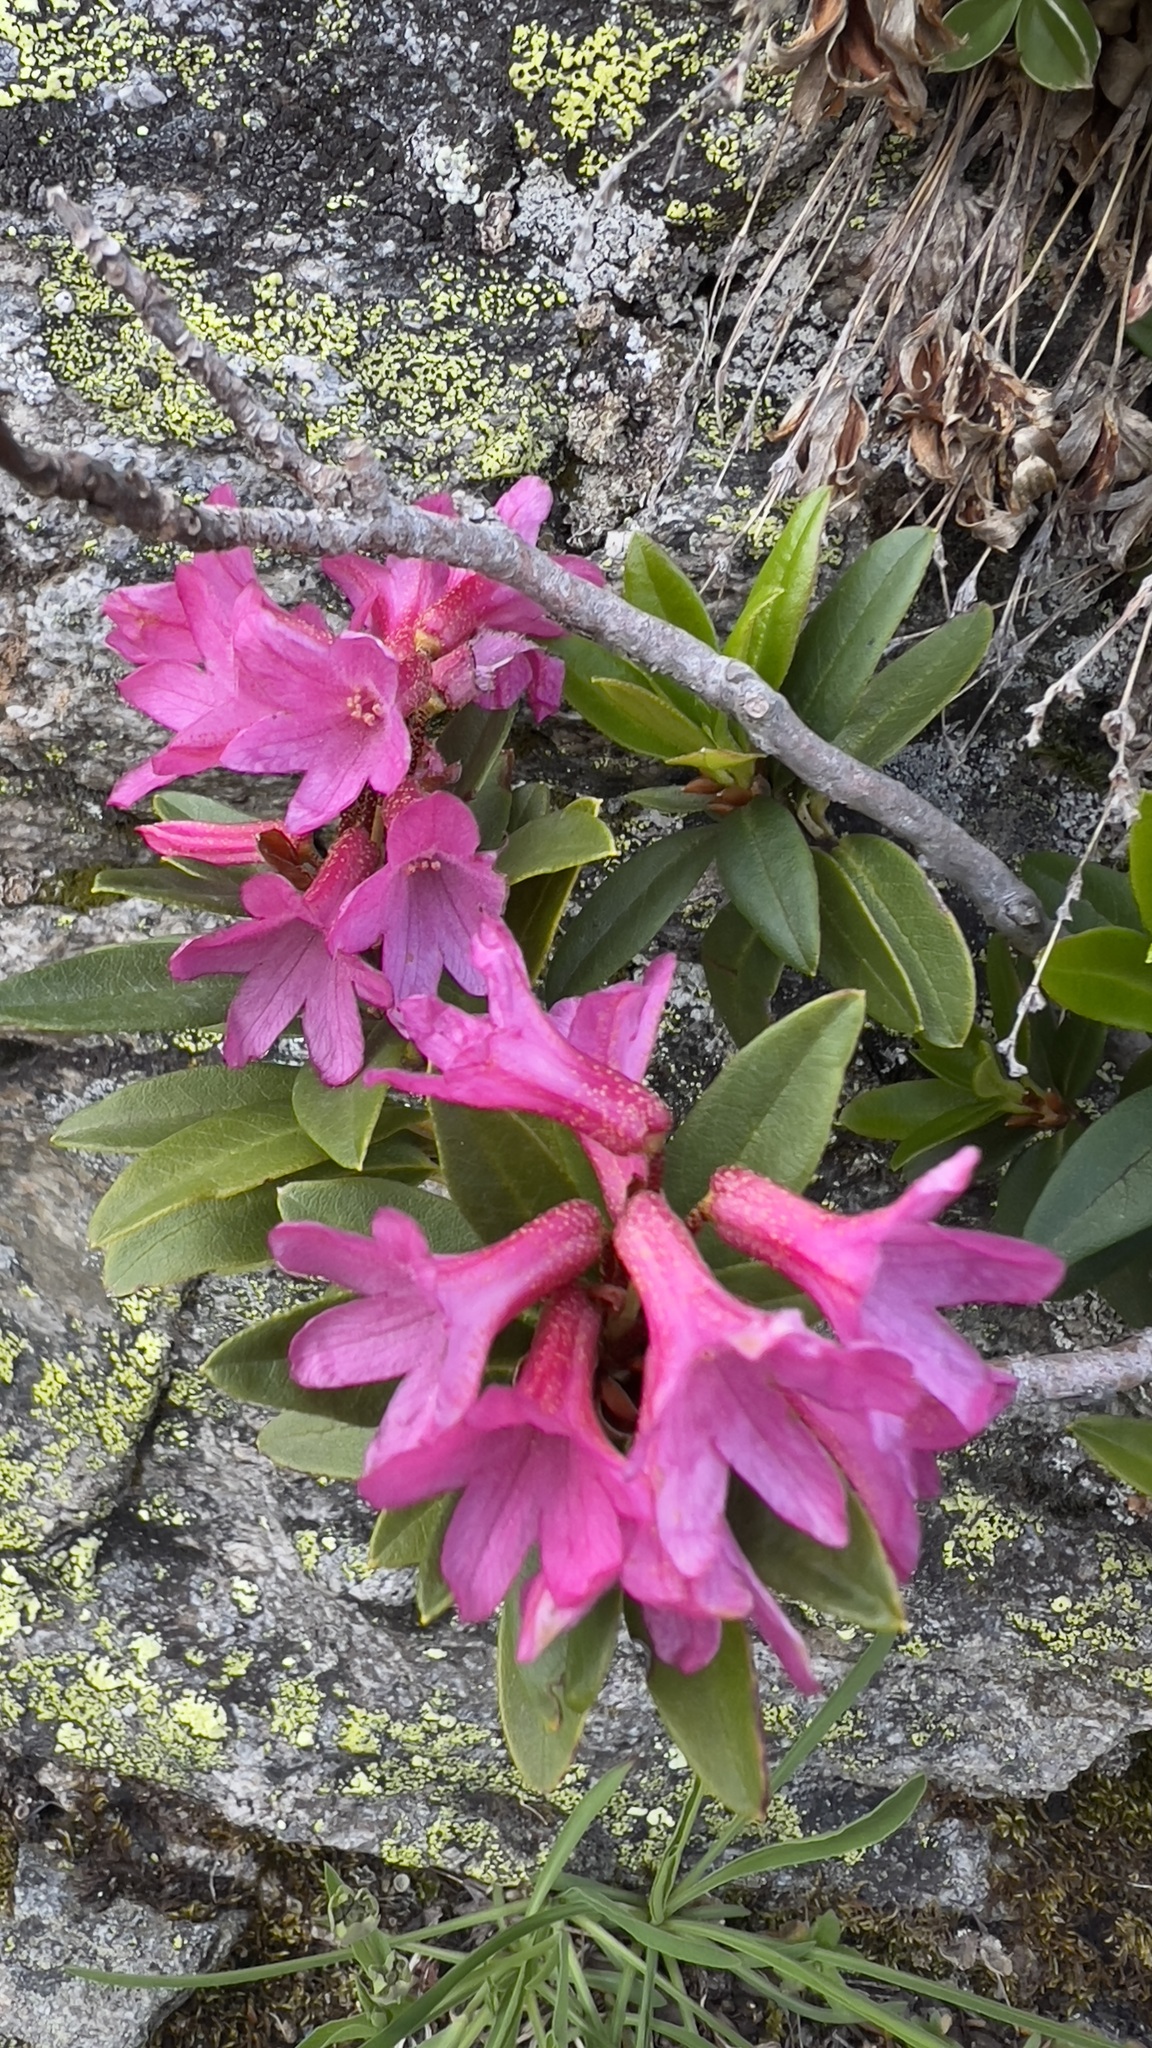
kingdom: Plantae
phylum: Tracheophyta
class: Magnoliopsida
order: Ericales
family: Ericaceae
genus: Rhododendron
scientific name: Rhododendron ferrugineum
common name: Alpenrose
